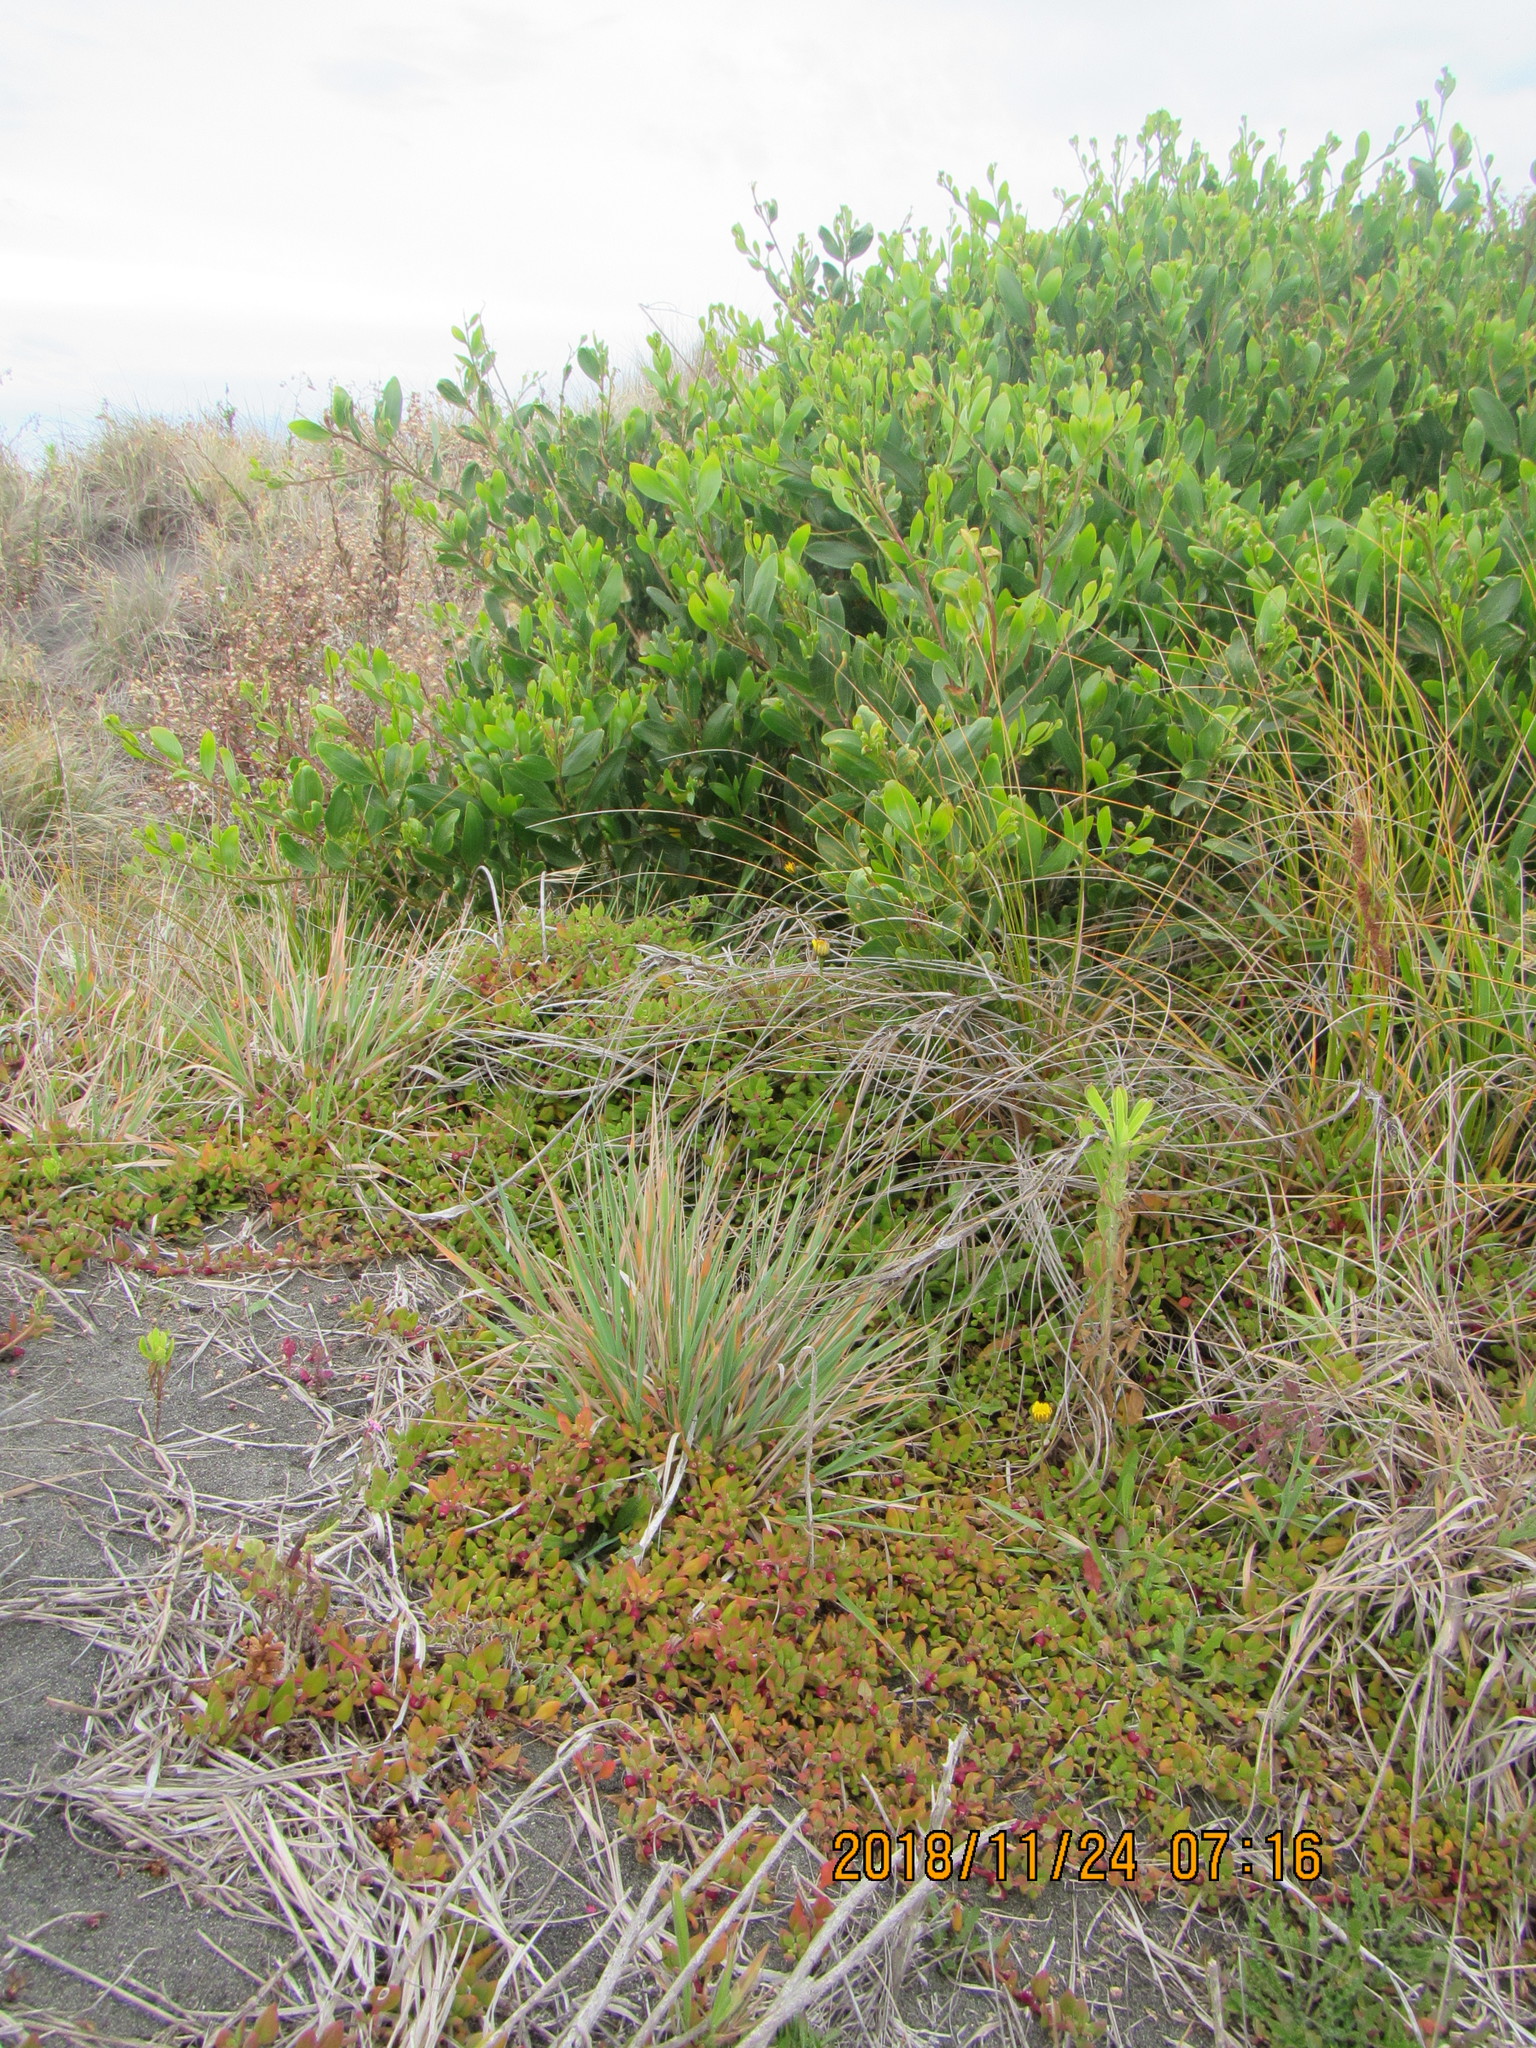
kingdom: Plantae
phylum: Tracheophyta
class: Magnoliopsida
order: Caryophyllales
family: Aizoaceae
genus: Tetragonia
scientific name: Tetragonia implexicoma
